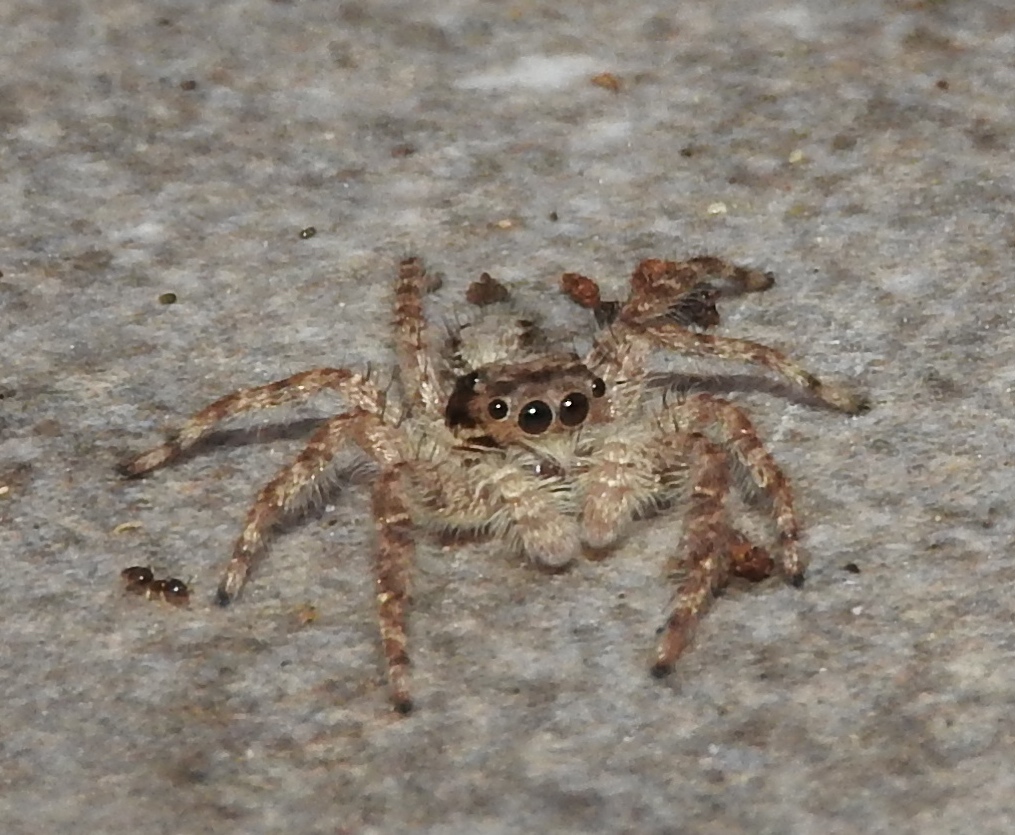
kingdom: Animalia
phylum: Arthropoda
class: Arachnida
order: Araneae
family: Salticidae
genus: Balmaceda
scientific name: Balmaceda
